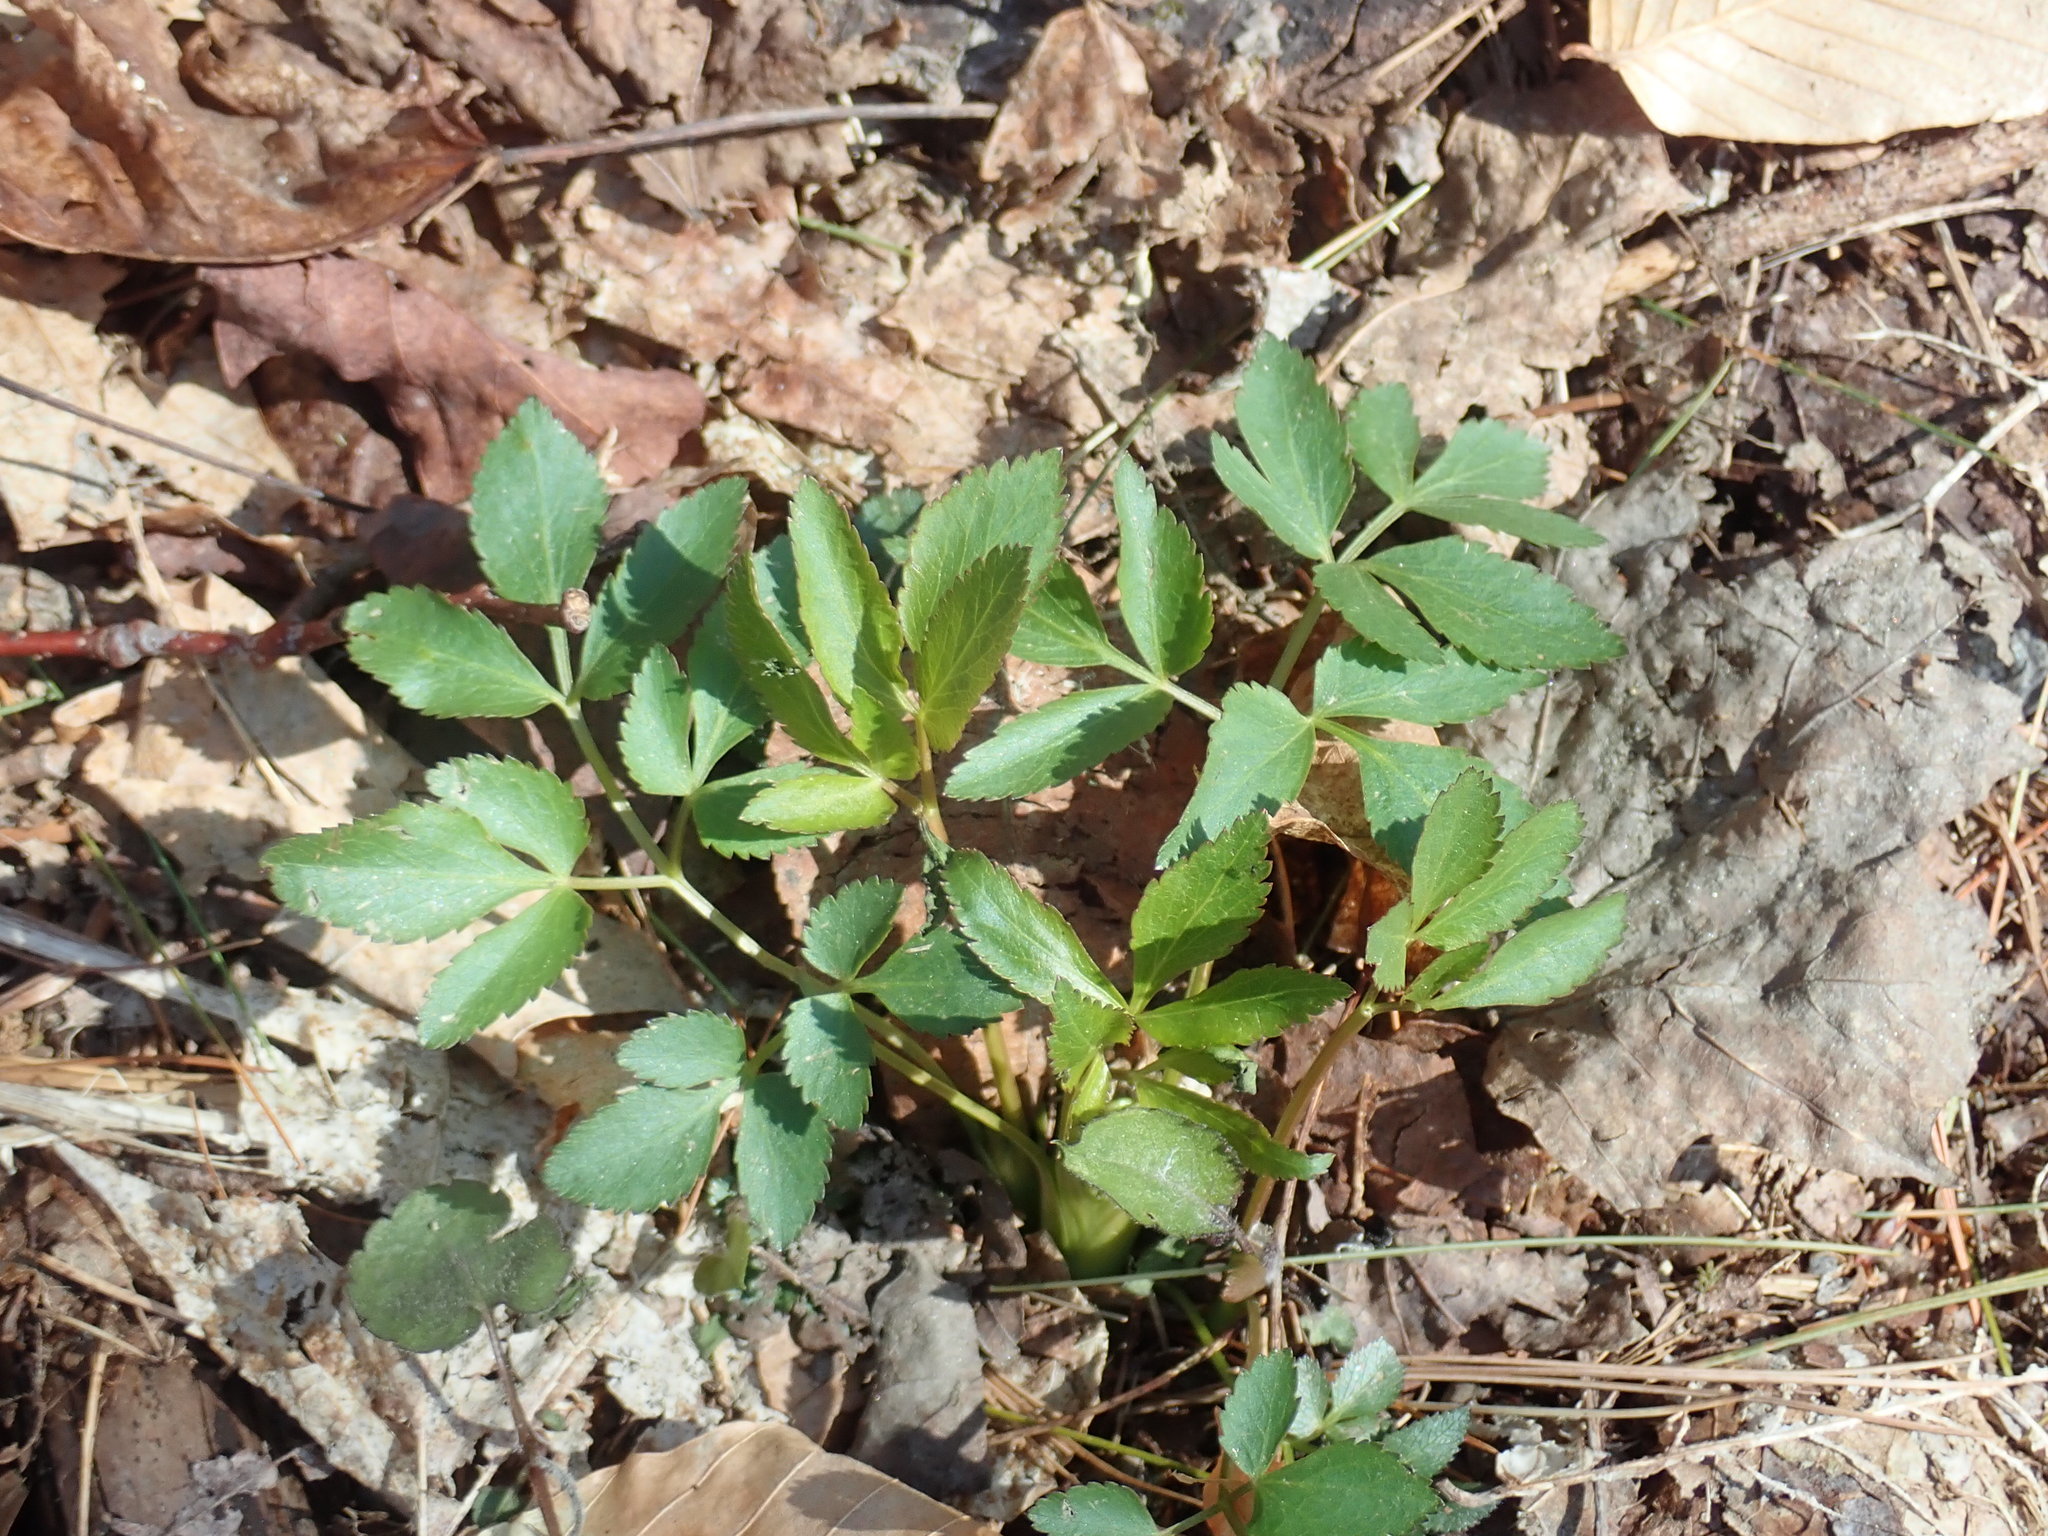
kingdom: Plantae
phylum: Tracheophyta
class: Magnoliopsida
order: Apiales
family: Apiaceae
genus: Zizia
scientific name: Zizia aurea
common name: Golden alexanders
